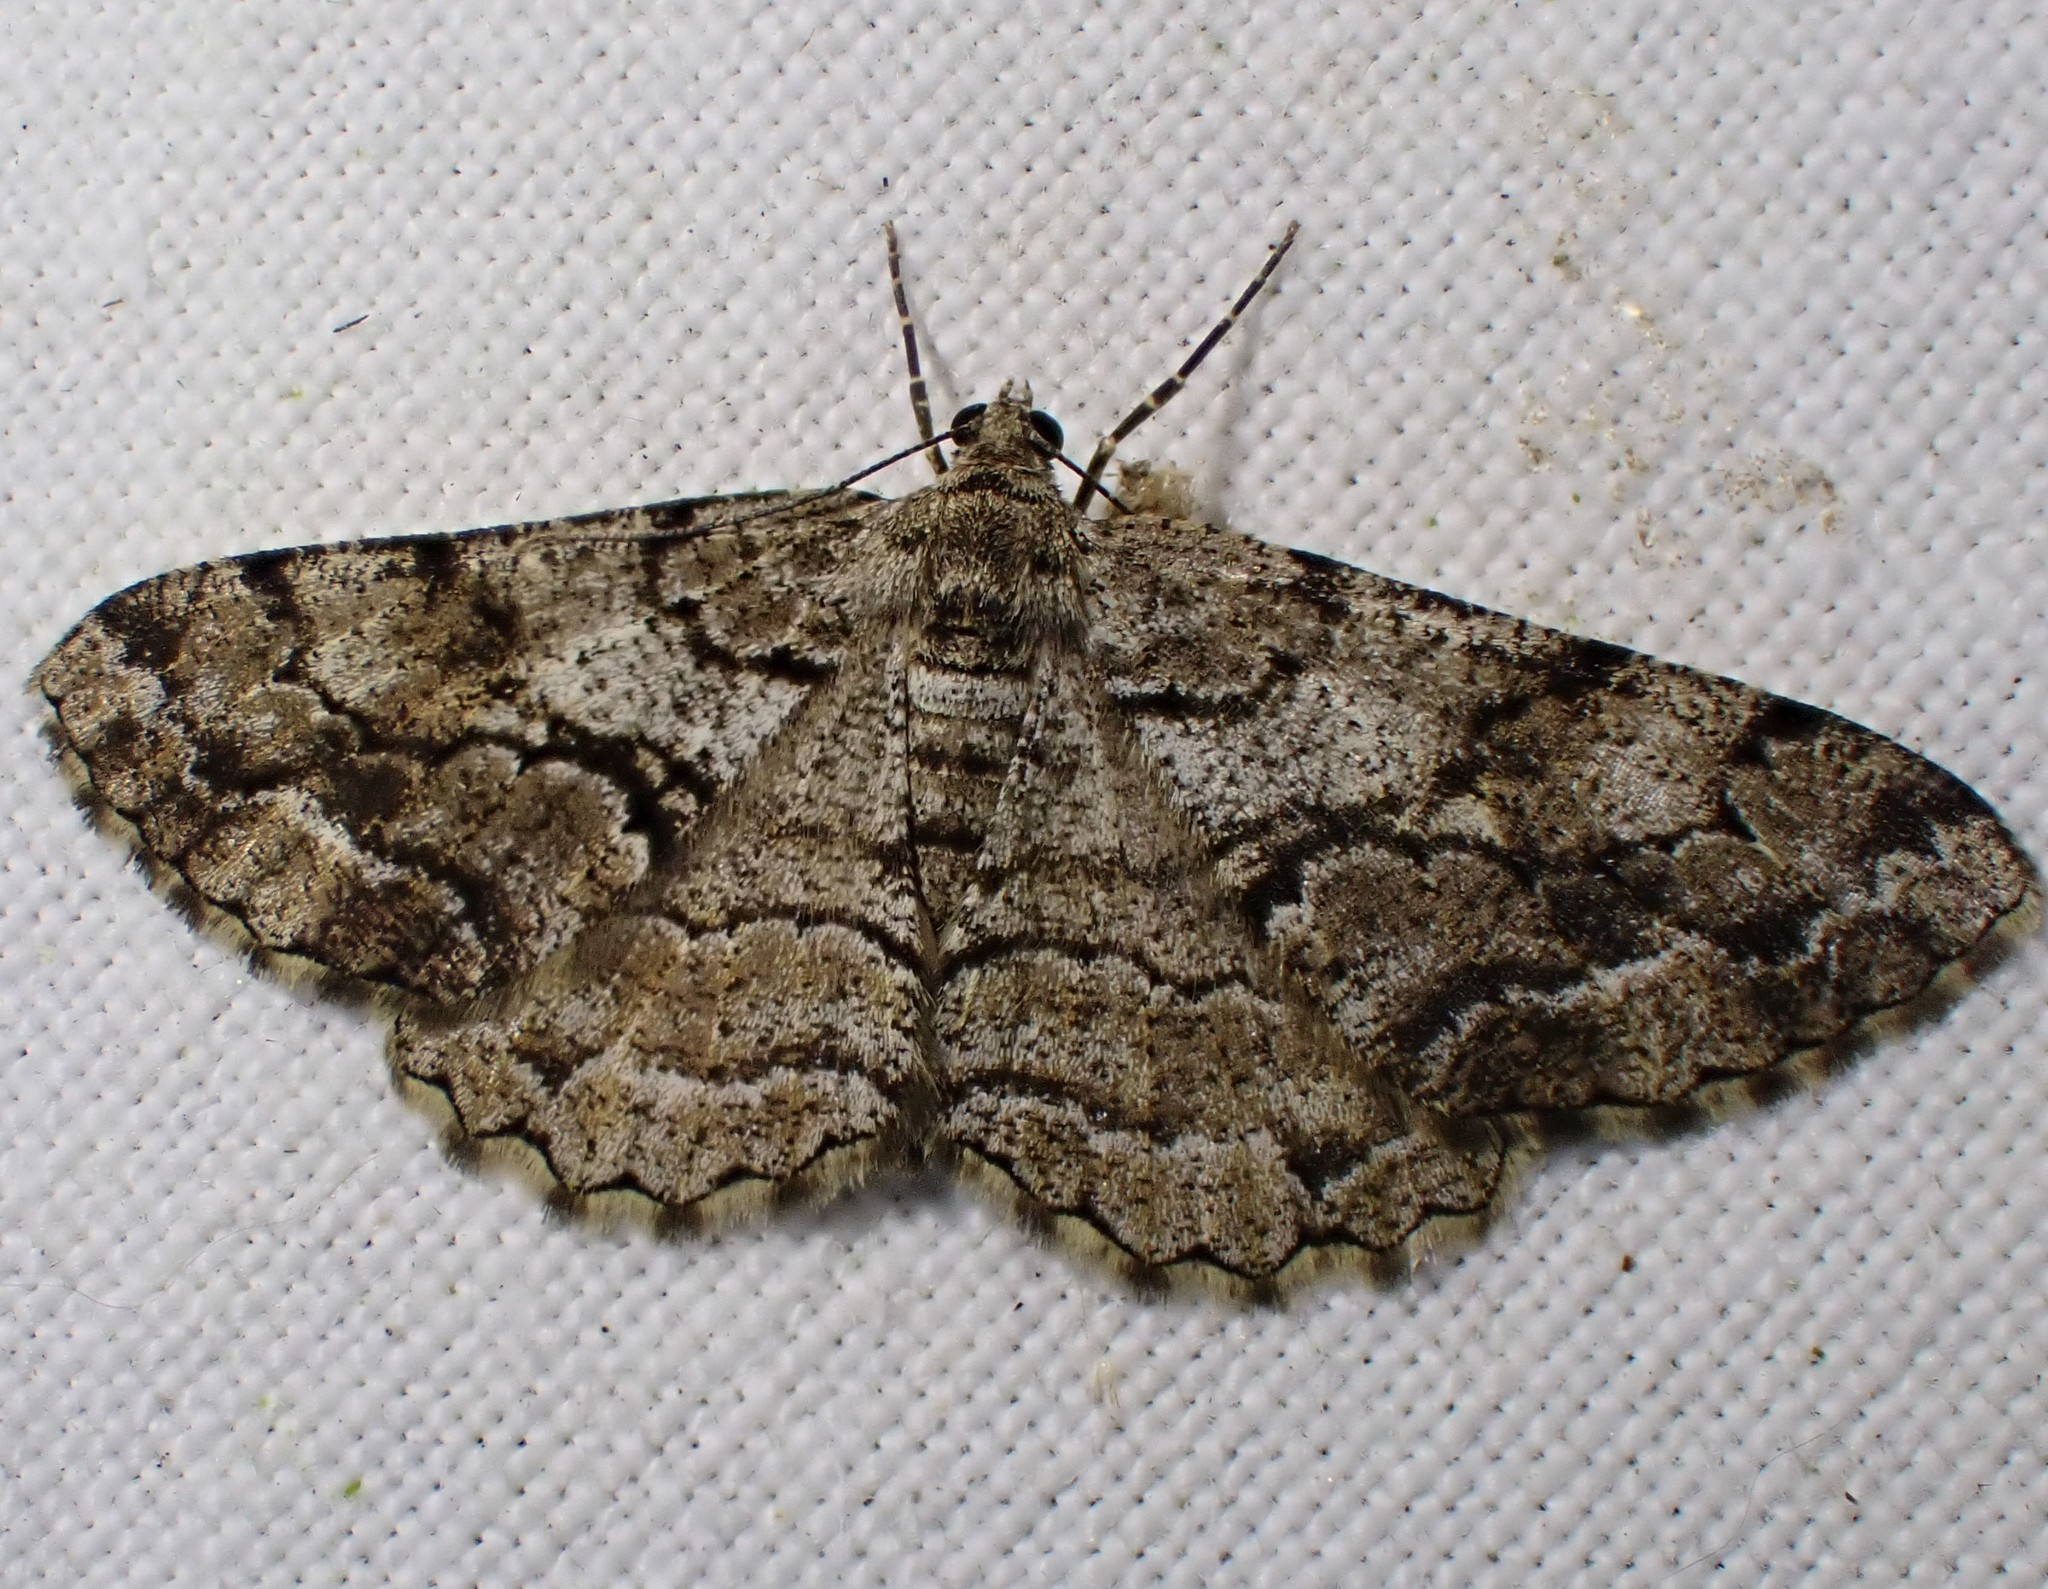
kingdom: Animalia
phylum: Arthropoda
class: Insecta
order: Lepidoptera
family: Geometridae
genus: Peribatodes
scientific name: Peribatodes secundaria
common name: Feathered beauty
